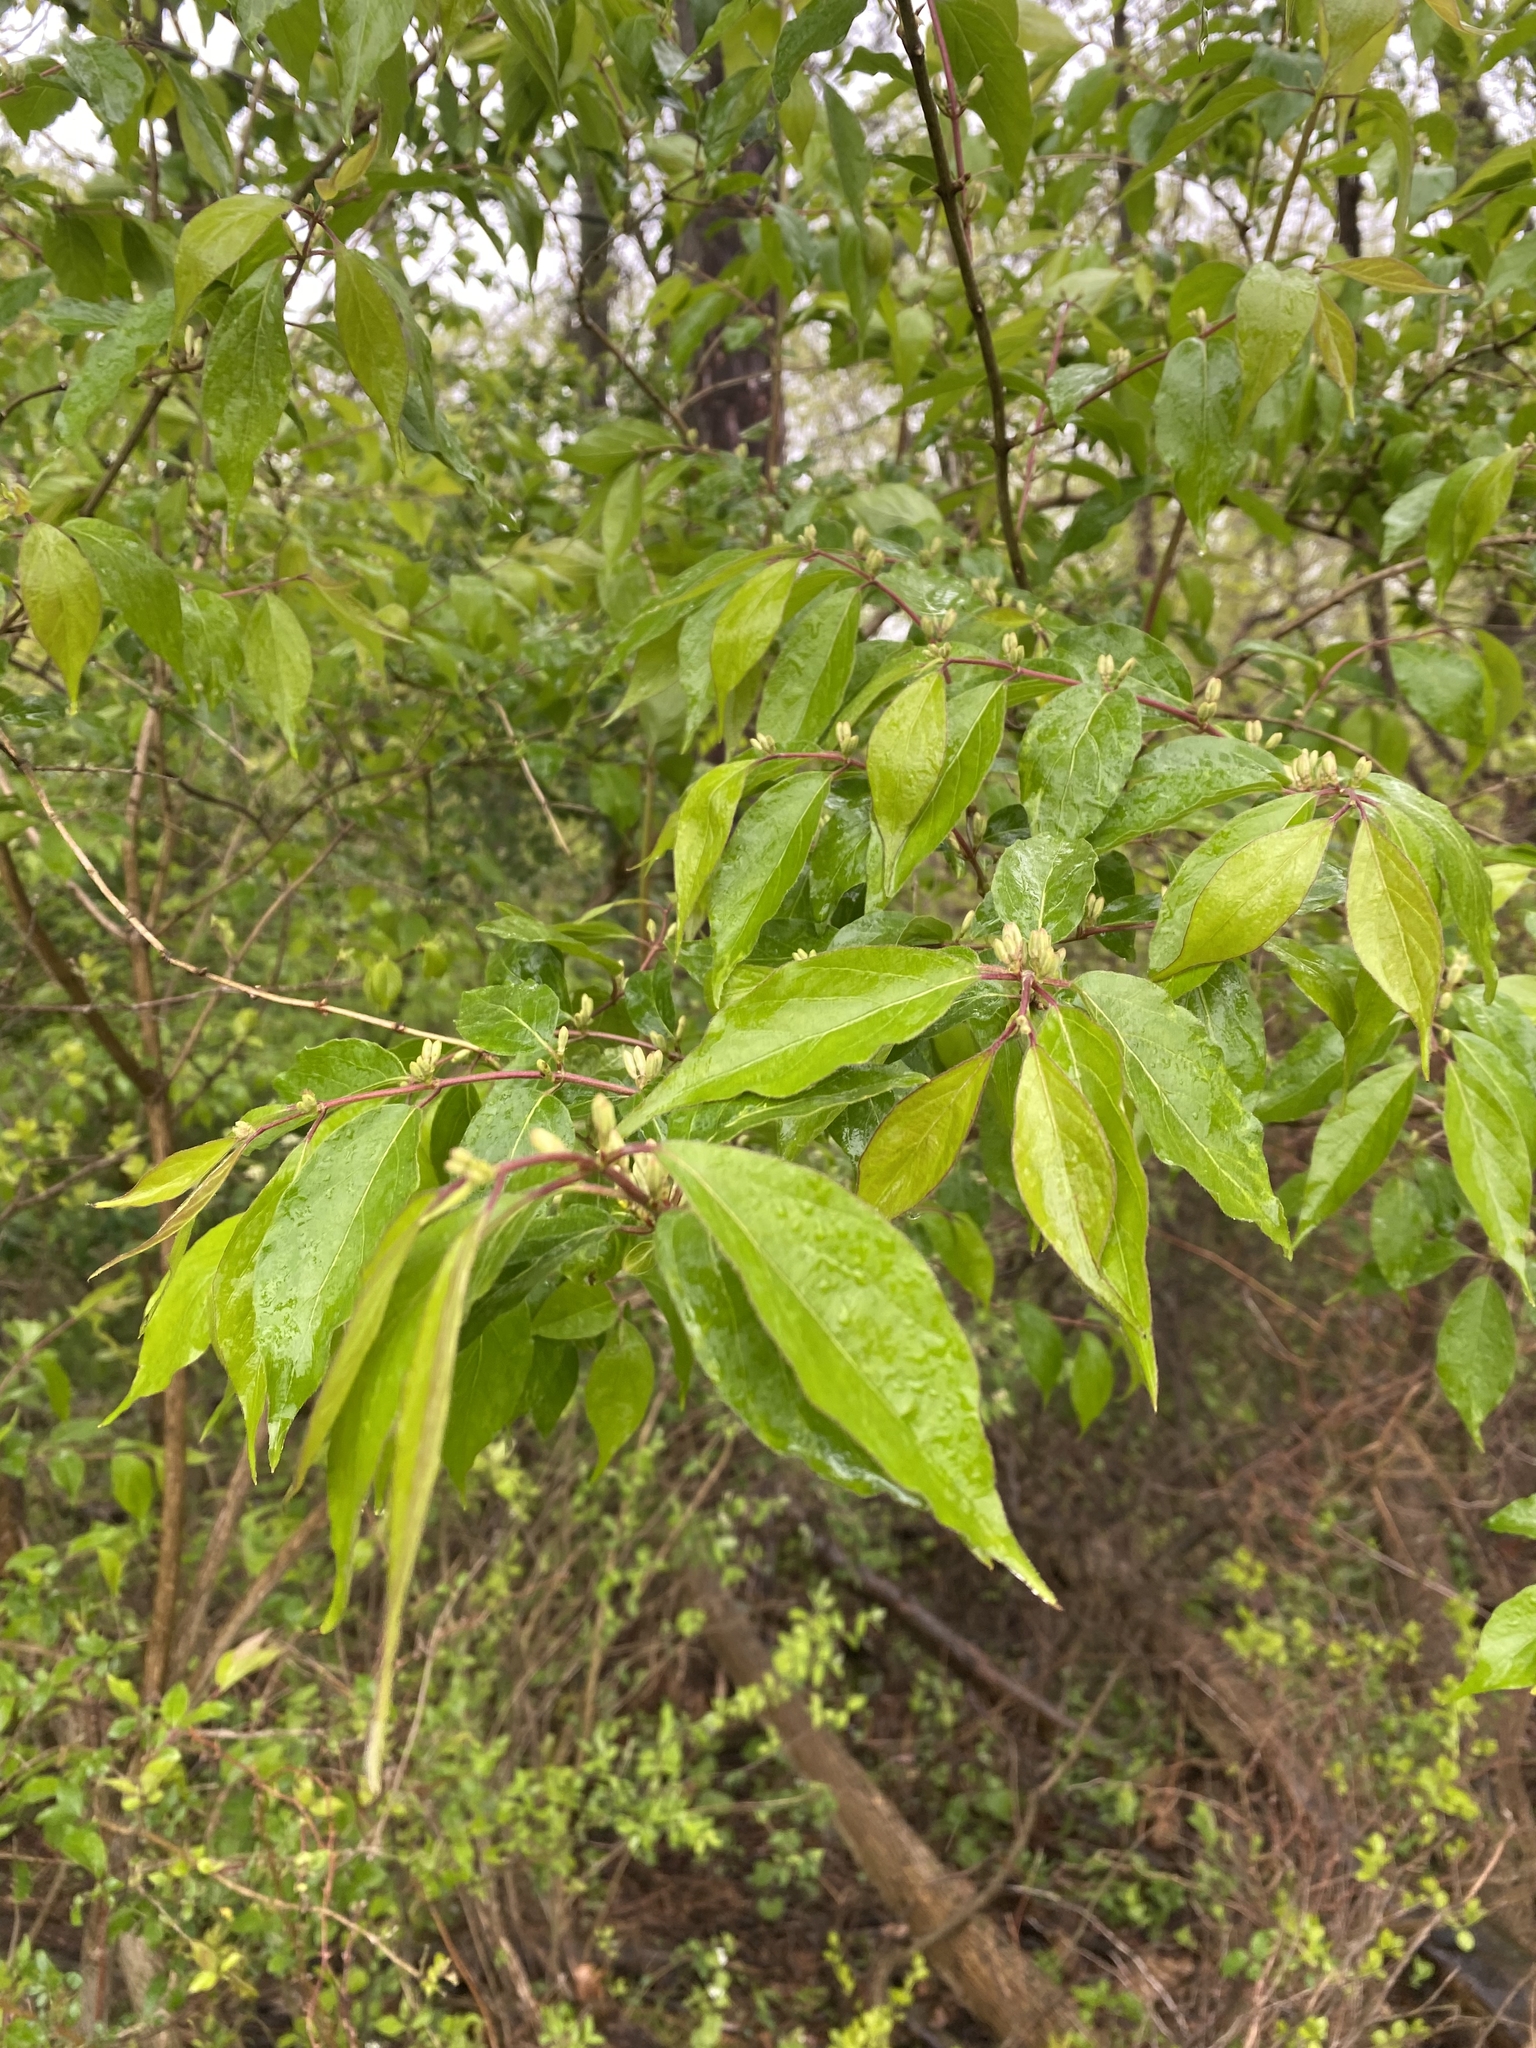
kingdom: Plantae
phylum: Tracheophyta
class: Magnoliopsida
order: Dipsacales
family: Caprifoliaceae
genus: Lonicera
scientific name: Lonicera maackii
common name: Amur honeysuckle
